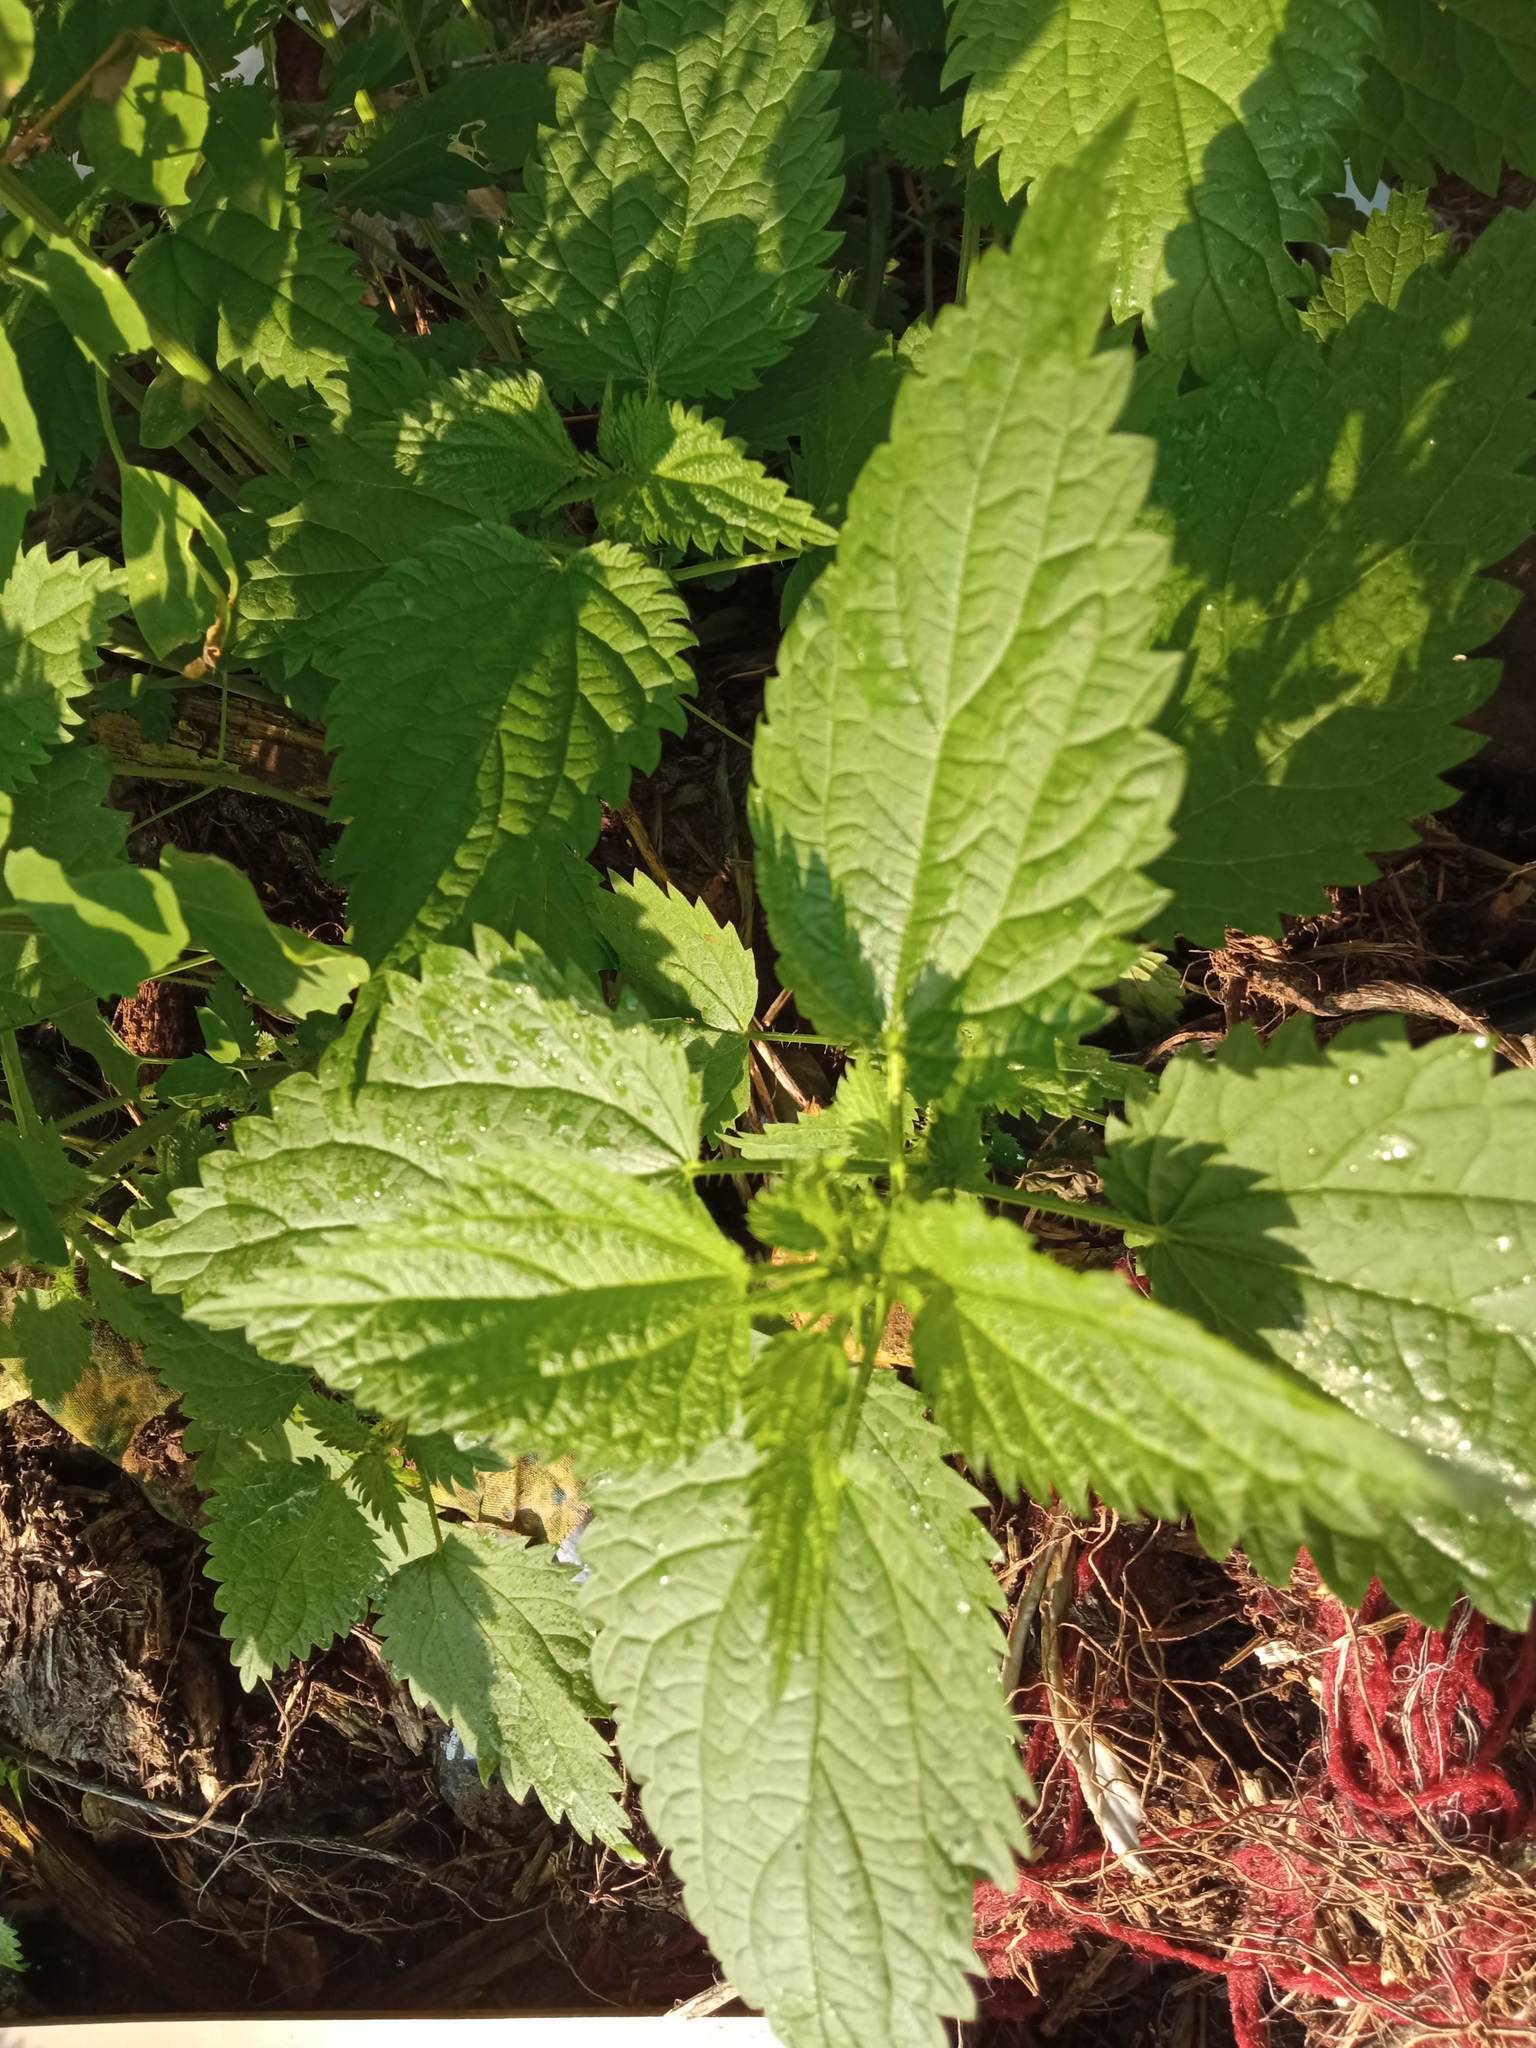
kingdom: Plantae
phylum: Tracheophyta
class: Magnoliopsida
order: Rosales
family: Urticaceae
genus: Urtica
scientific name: Urtica dioica
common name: Common nettle
